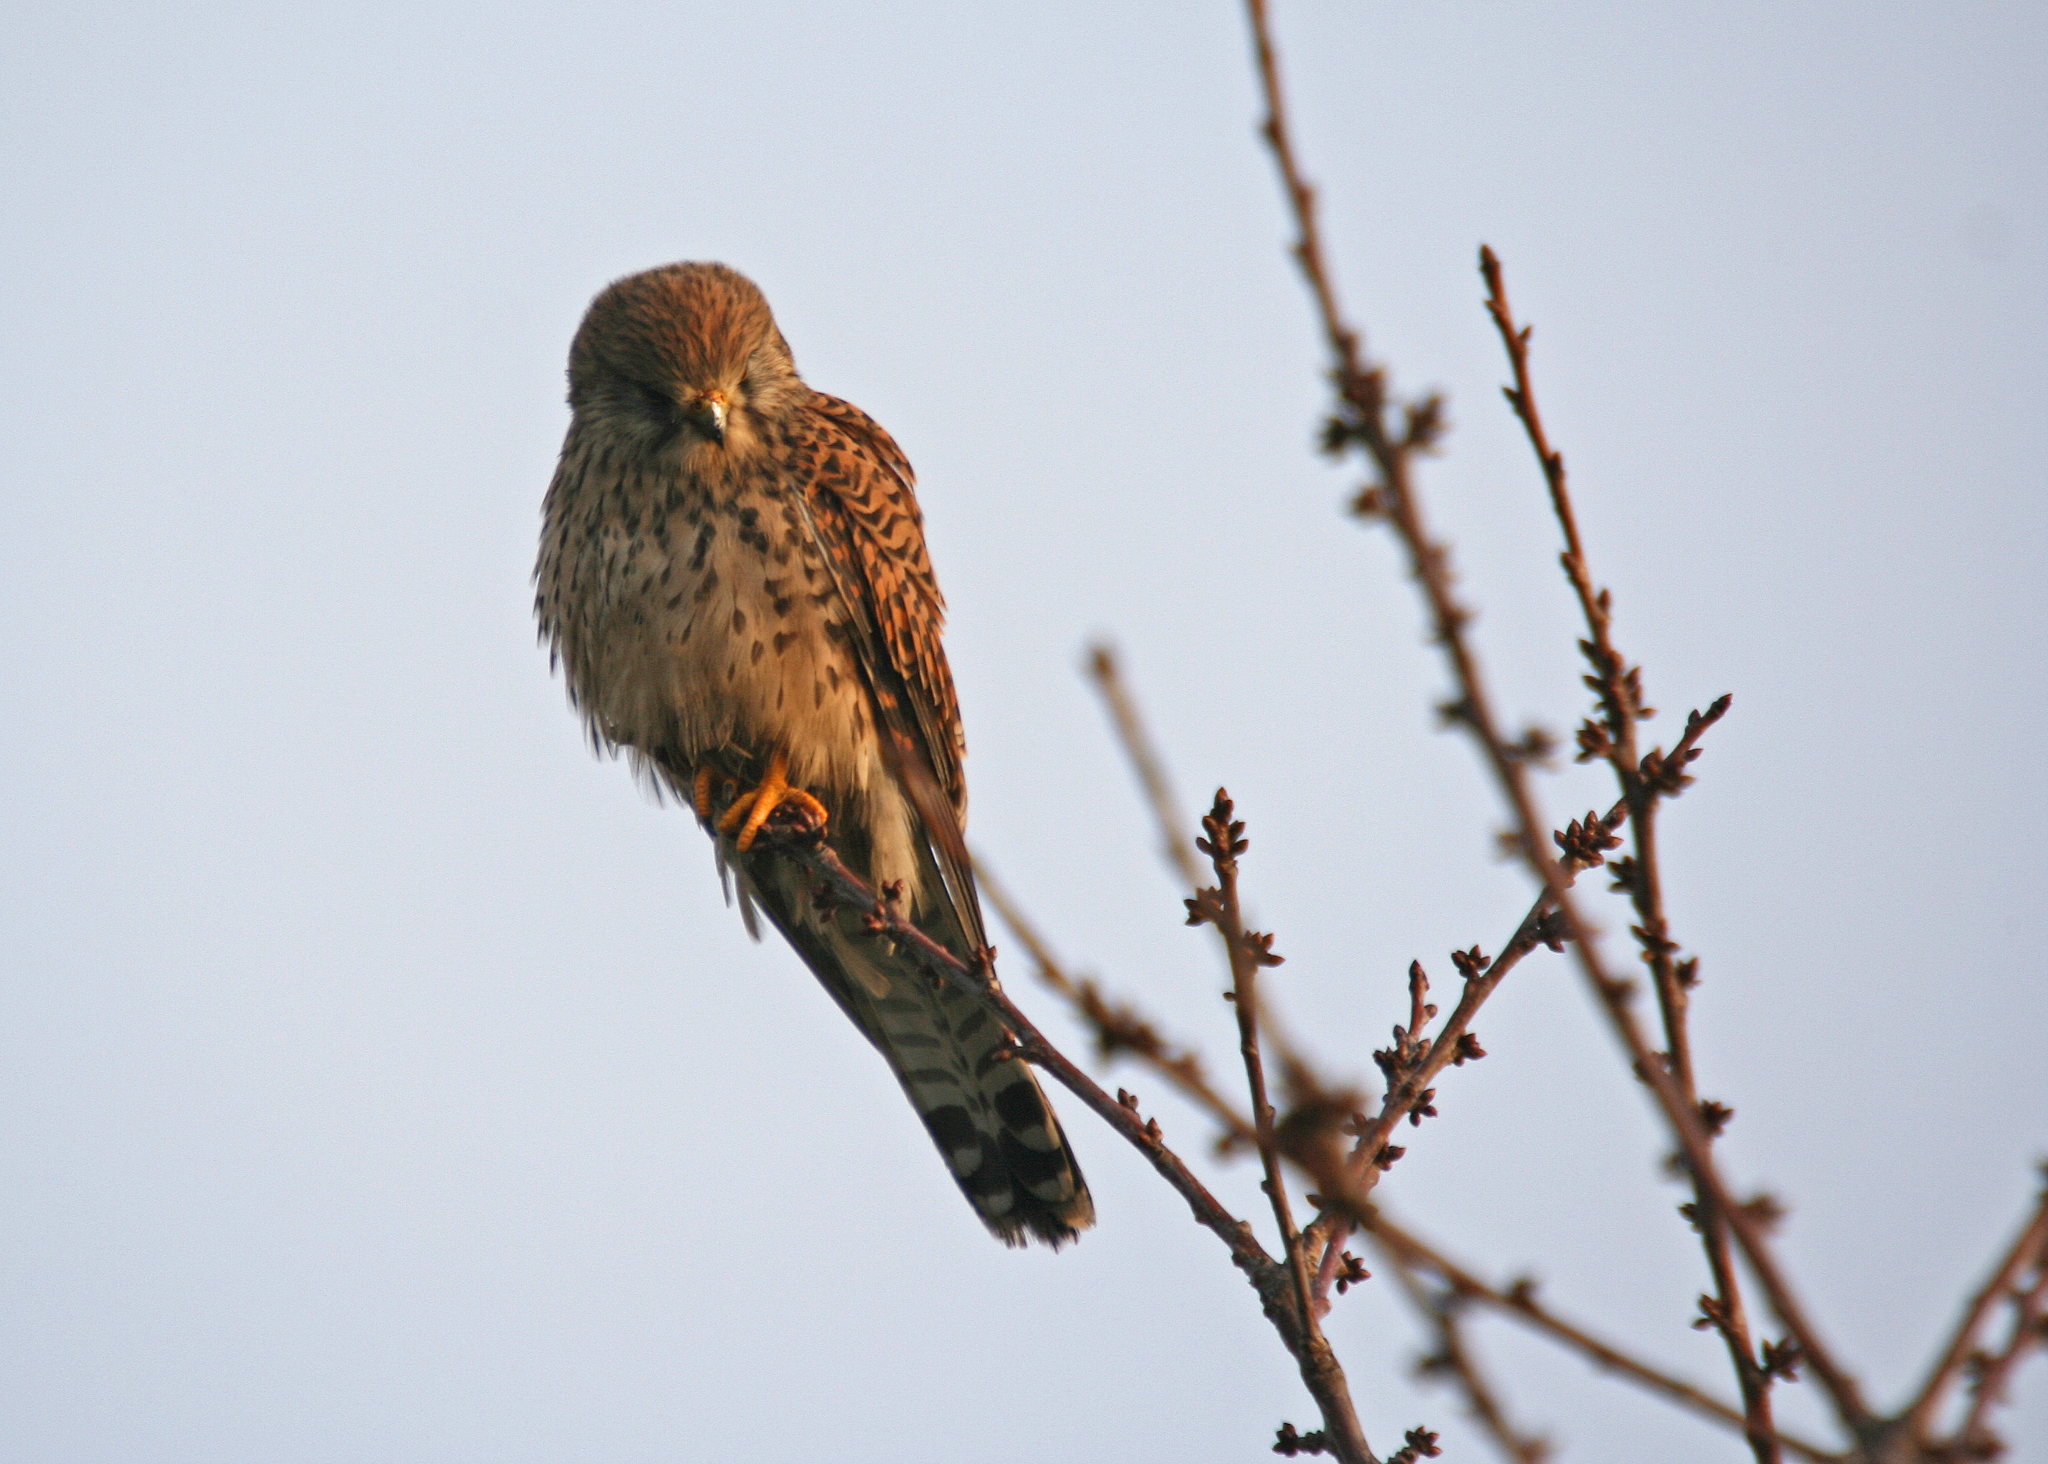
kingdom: Animalia
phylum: Chordata
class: Aves
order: Falconiformes
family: Falconidae
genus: Falco
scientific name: Falco tinnunculus
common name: Common kestrel
